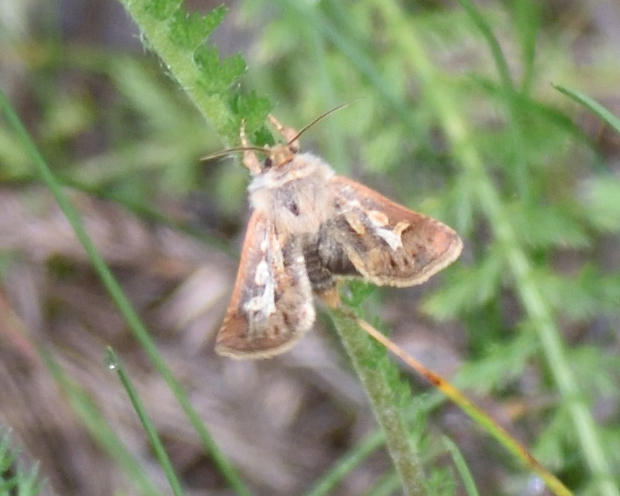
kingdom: Animalia
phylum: Arthropoda
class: Insecta
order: Lepidoptera
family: Noctuidae
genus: Cerapteryx
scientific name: Cerapteryx graminis
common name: Antler moth
